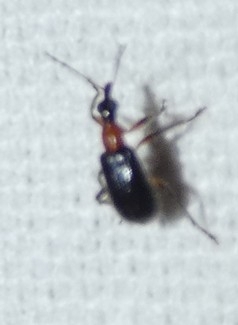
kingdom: Animalia
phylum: Arthropoda
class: Insecta
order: Coleoptera
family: Attelabidae
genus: Eugnamptus
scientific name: Eugnamptus angustatus
